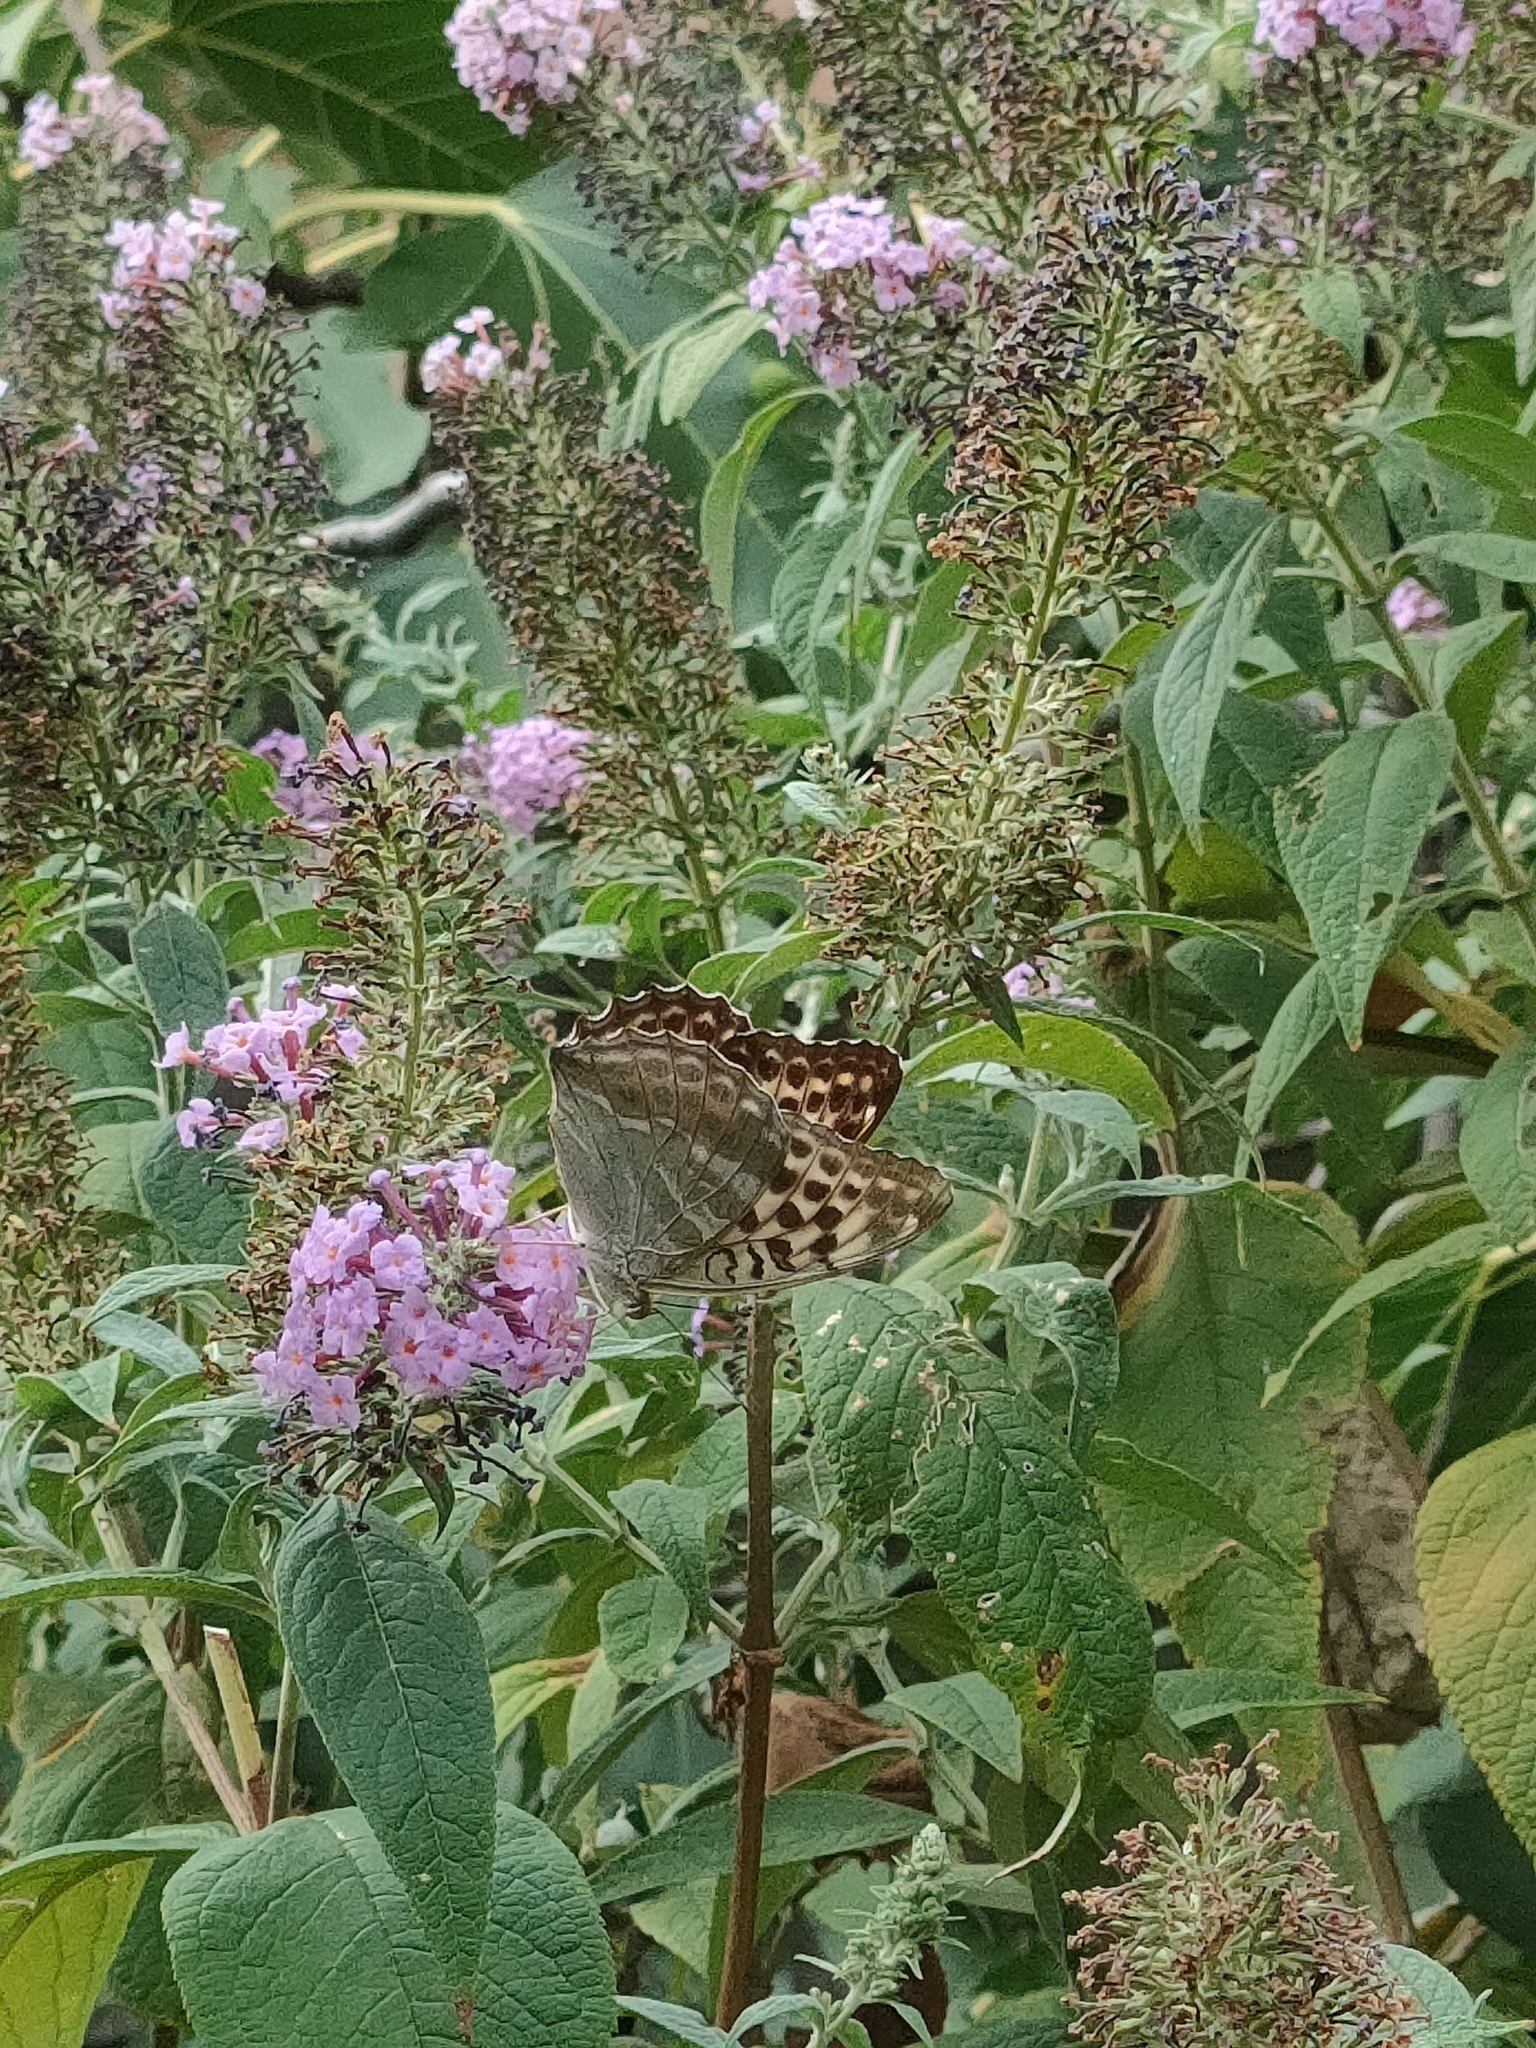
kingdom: Animalia
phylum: Arthropoda
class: Insecta
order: Lepidoptera
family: Nymphalidae
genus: Argynnis
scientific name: Argynnis paphia
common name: Silver-washed fritillary
